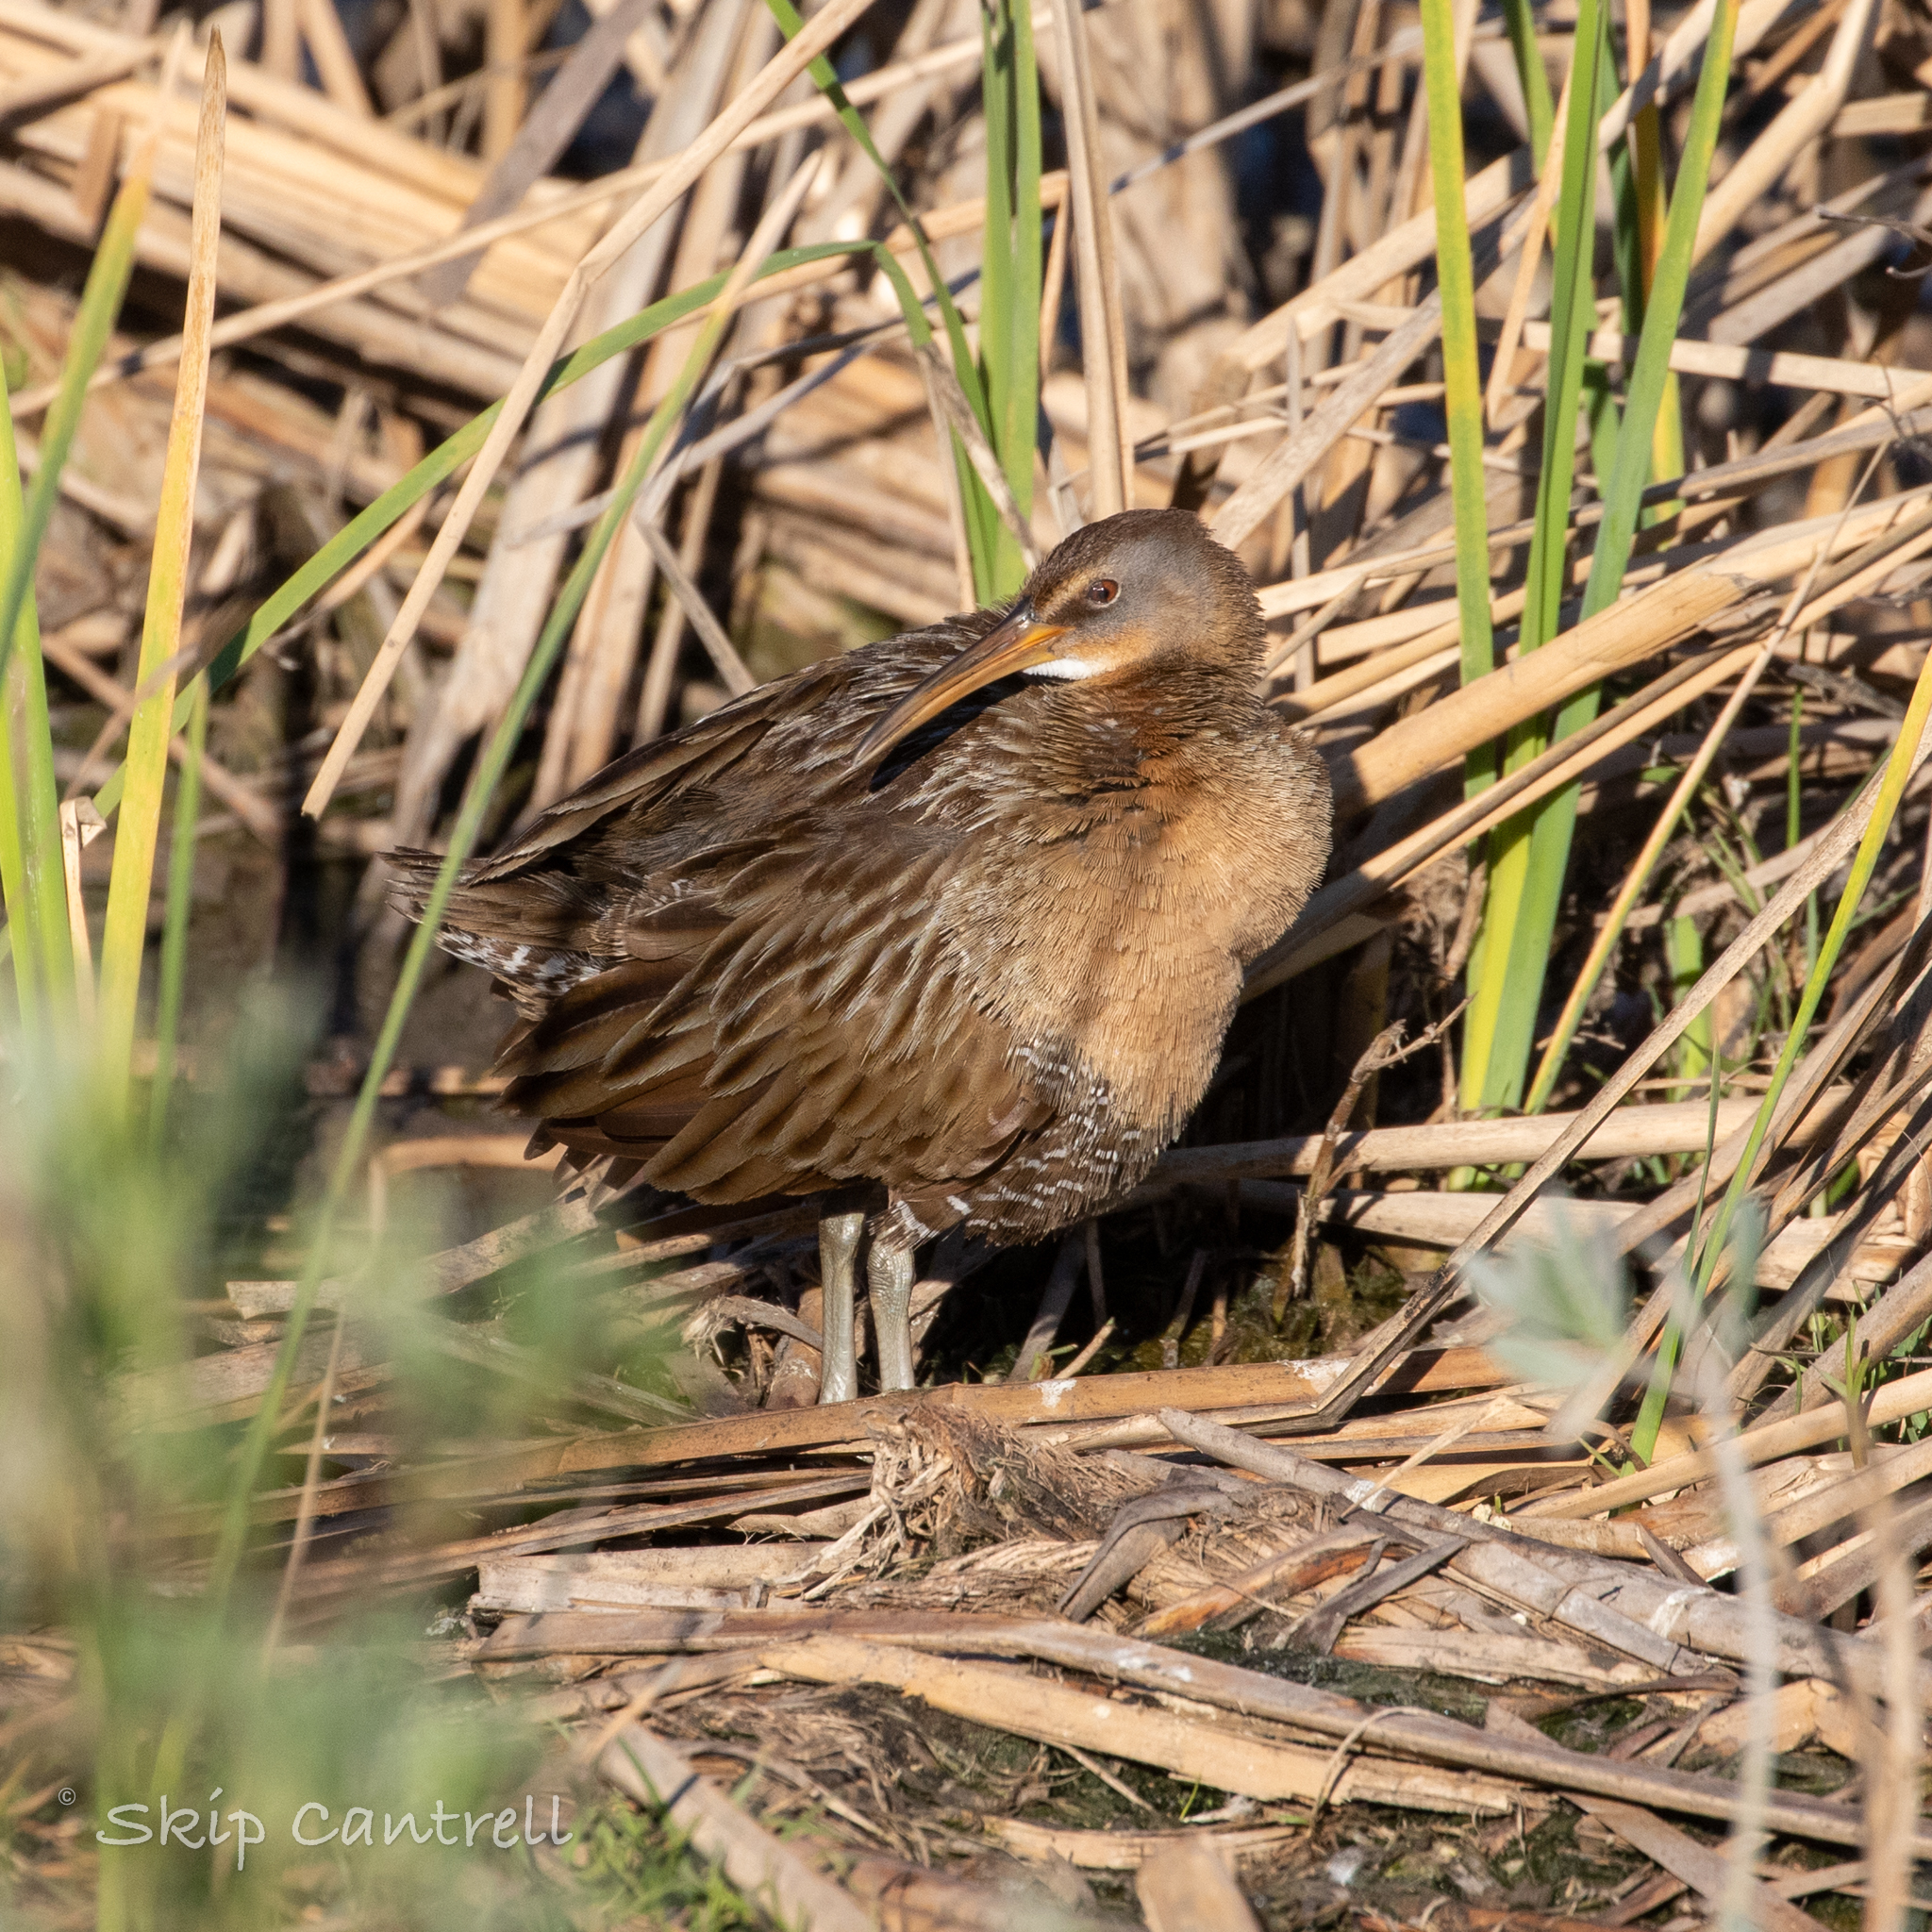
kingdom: Animalia
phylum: Chordata
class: Aves
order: Gruiformes
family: Rallidae
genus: Rallus
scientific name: Rallus crepitans
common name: Clapper rail
